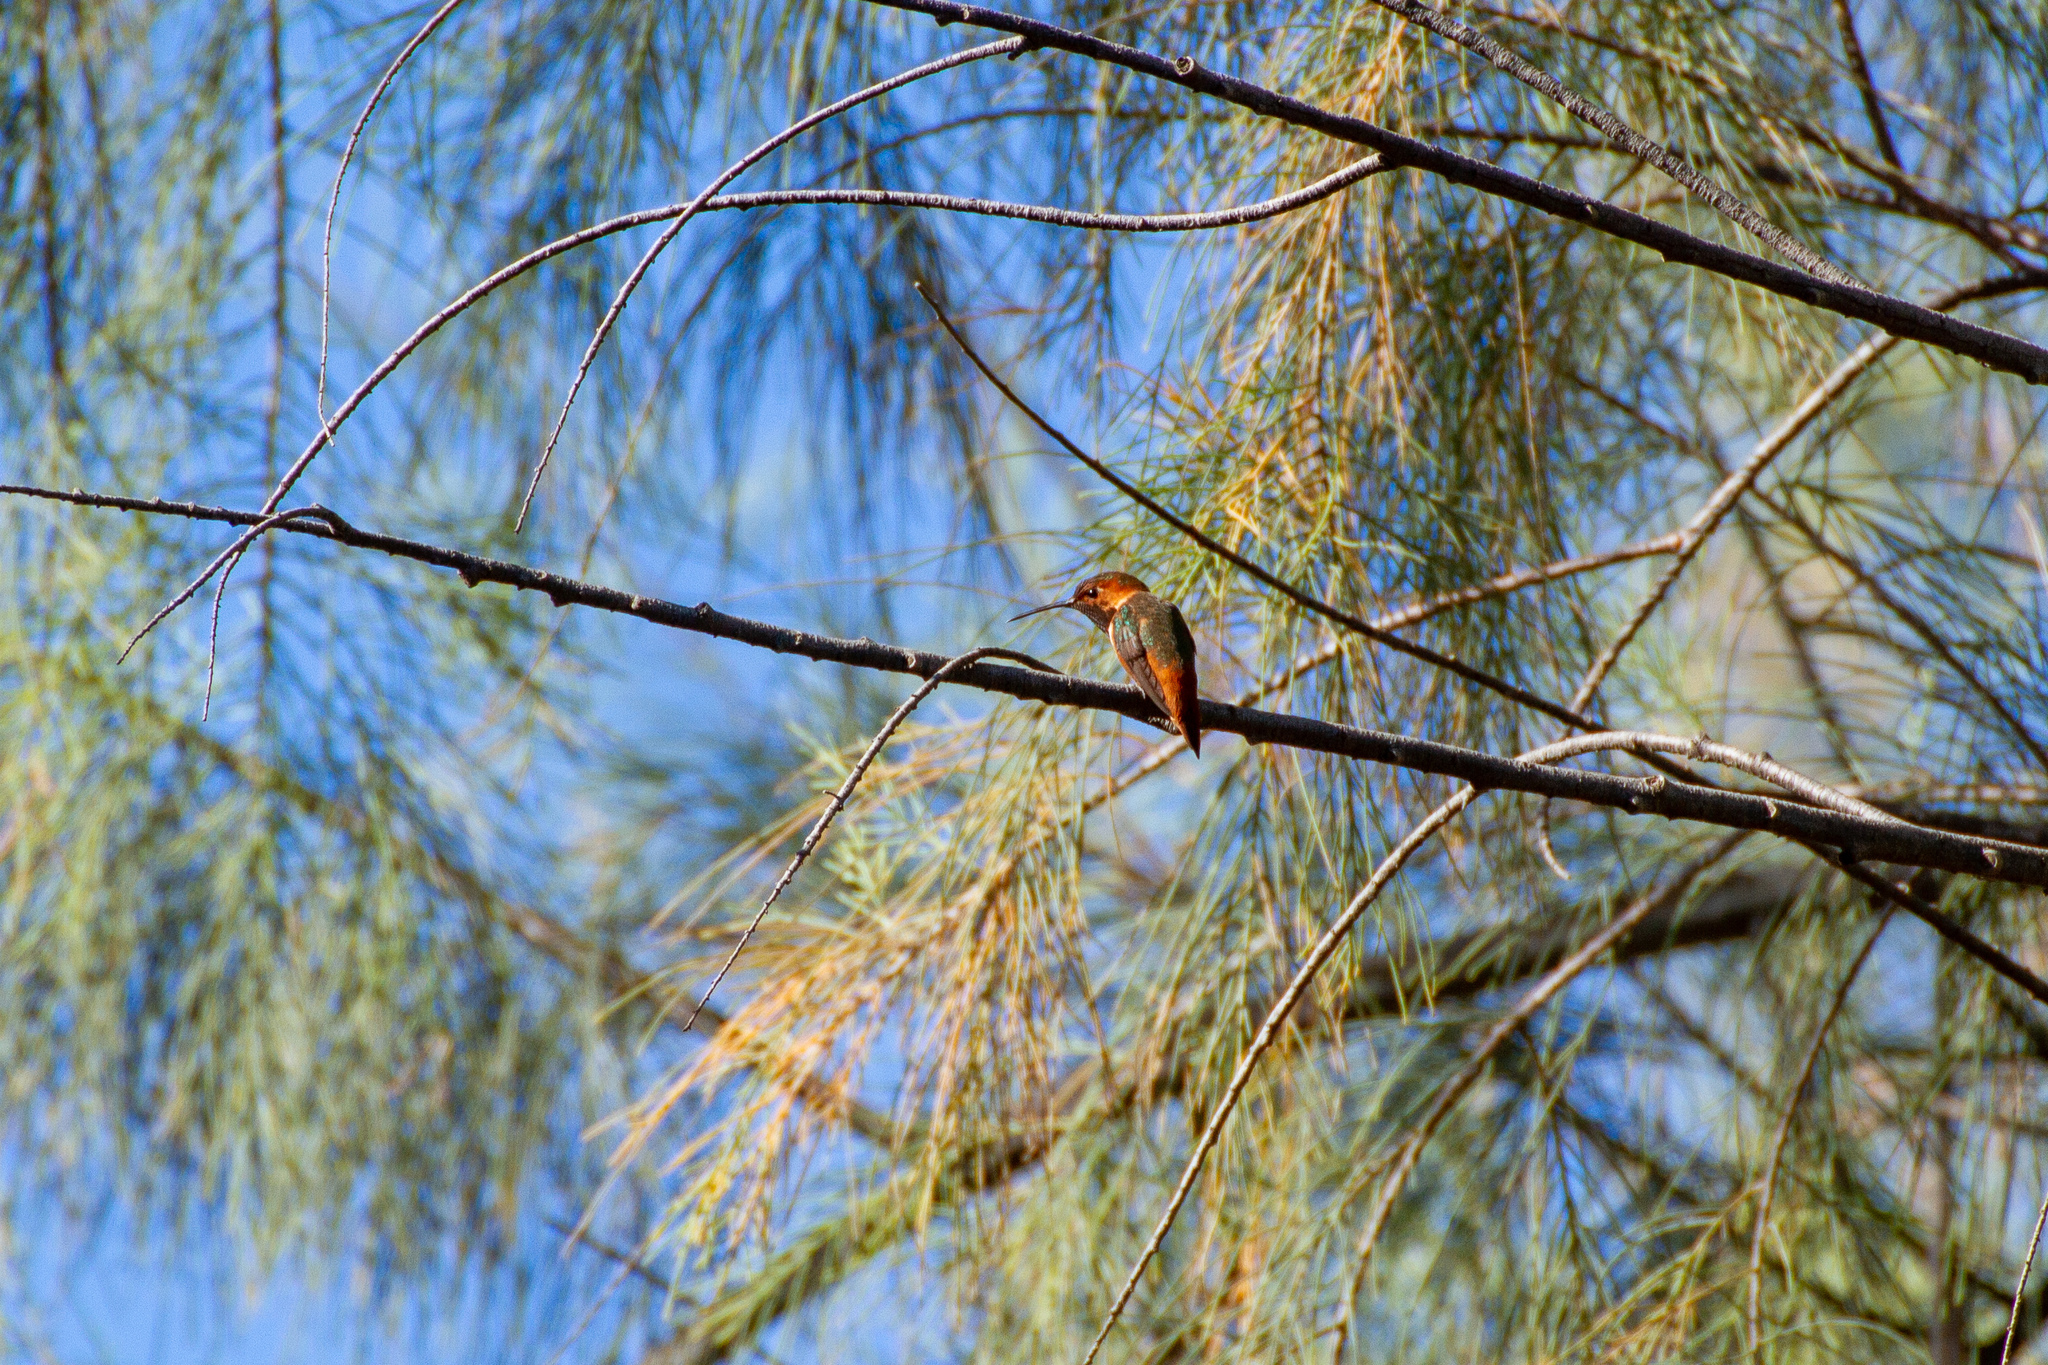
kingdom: Animalia
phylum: Chordata
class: Aves
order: Apodiformes
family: Trochilidae
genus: Selasphorus
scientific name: Selasphorus sasin
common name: Allen's hummingbird
